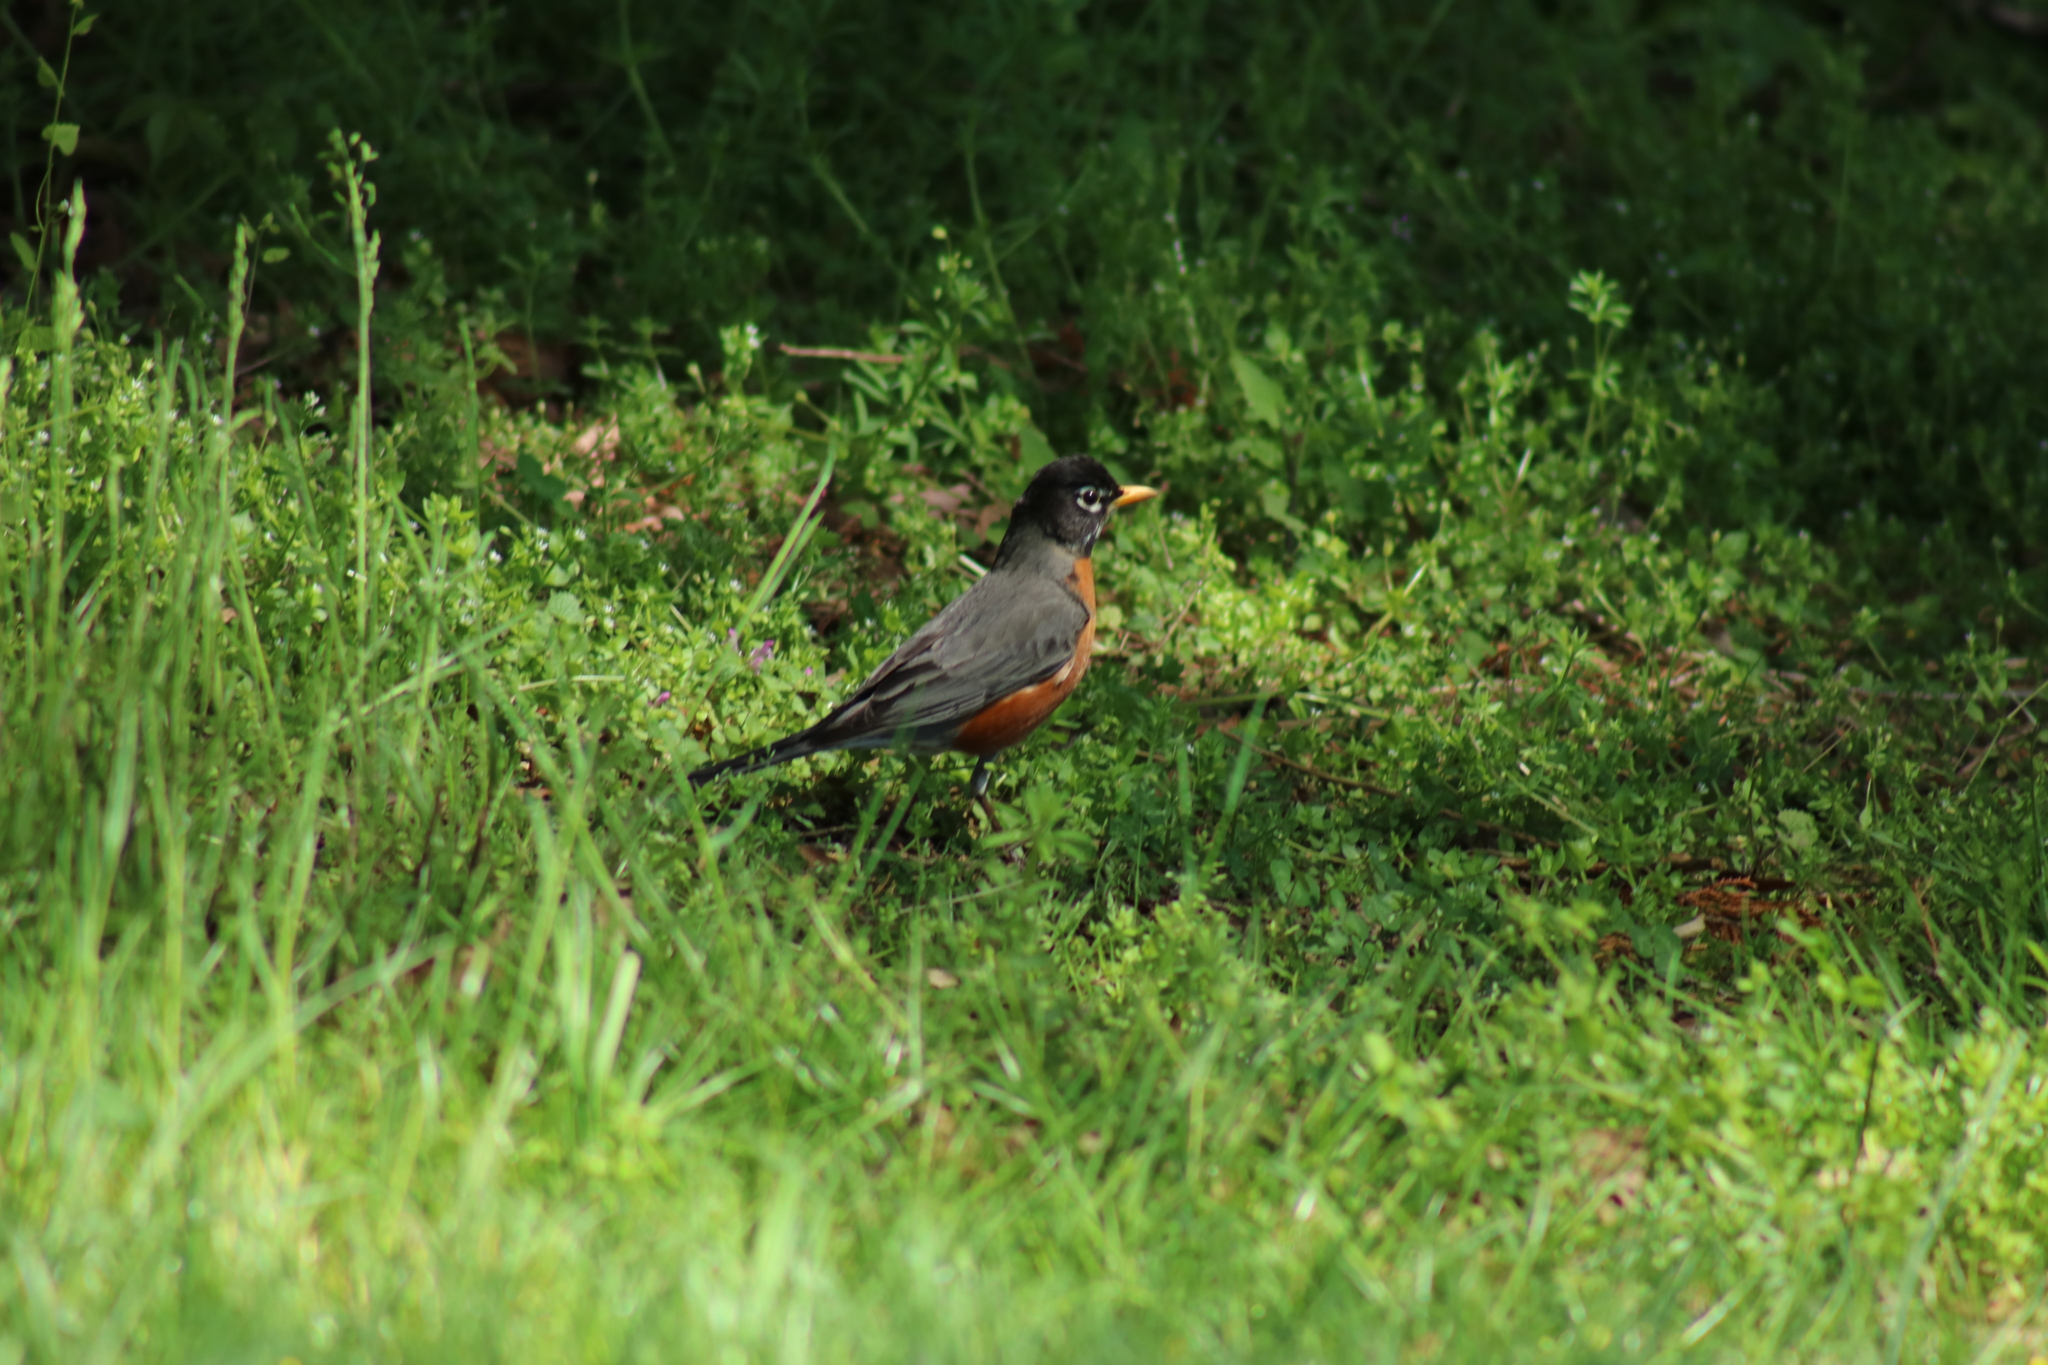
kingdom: Animalia
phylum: Chordata
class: Aves
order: Passeriformes
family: Turdidae
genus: Turdus
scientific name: Turdus migratorius
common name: American robin
